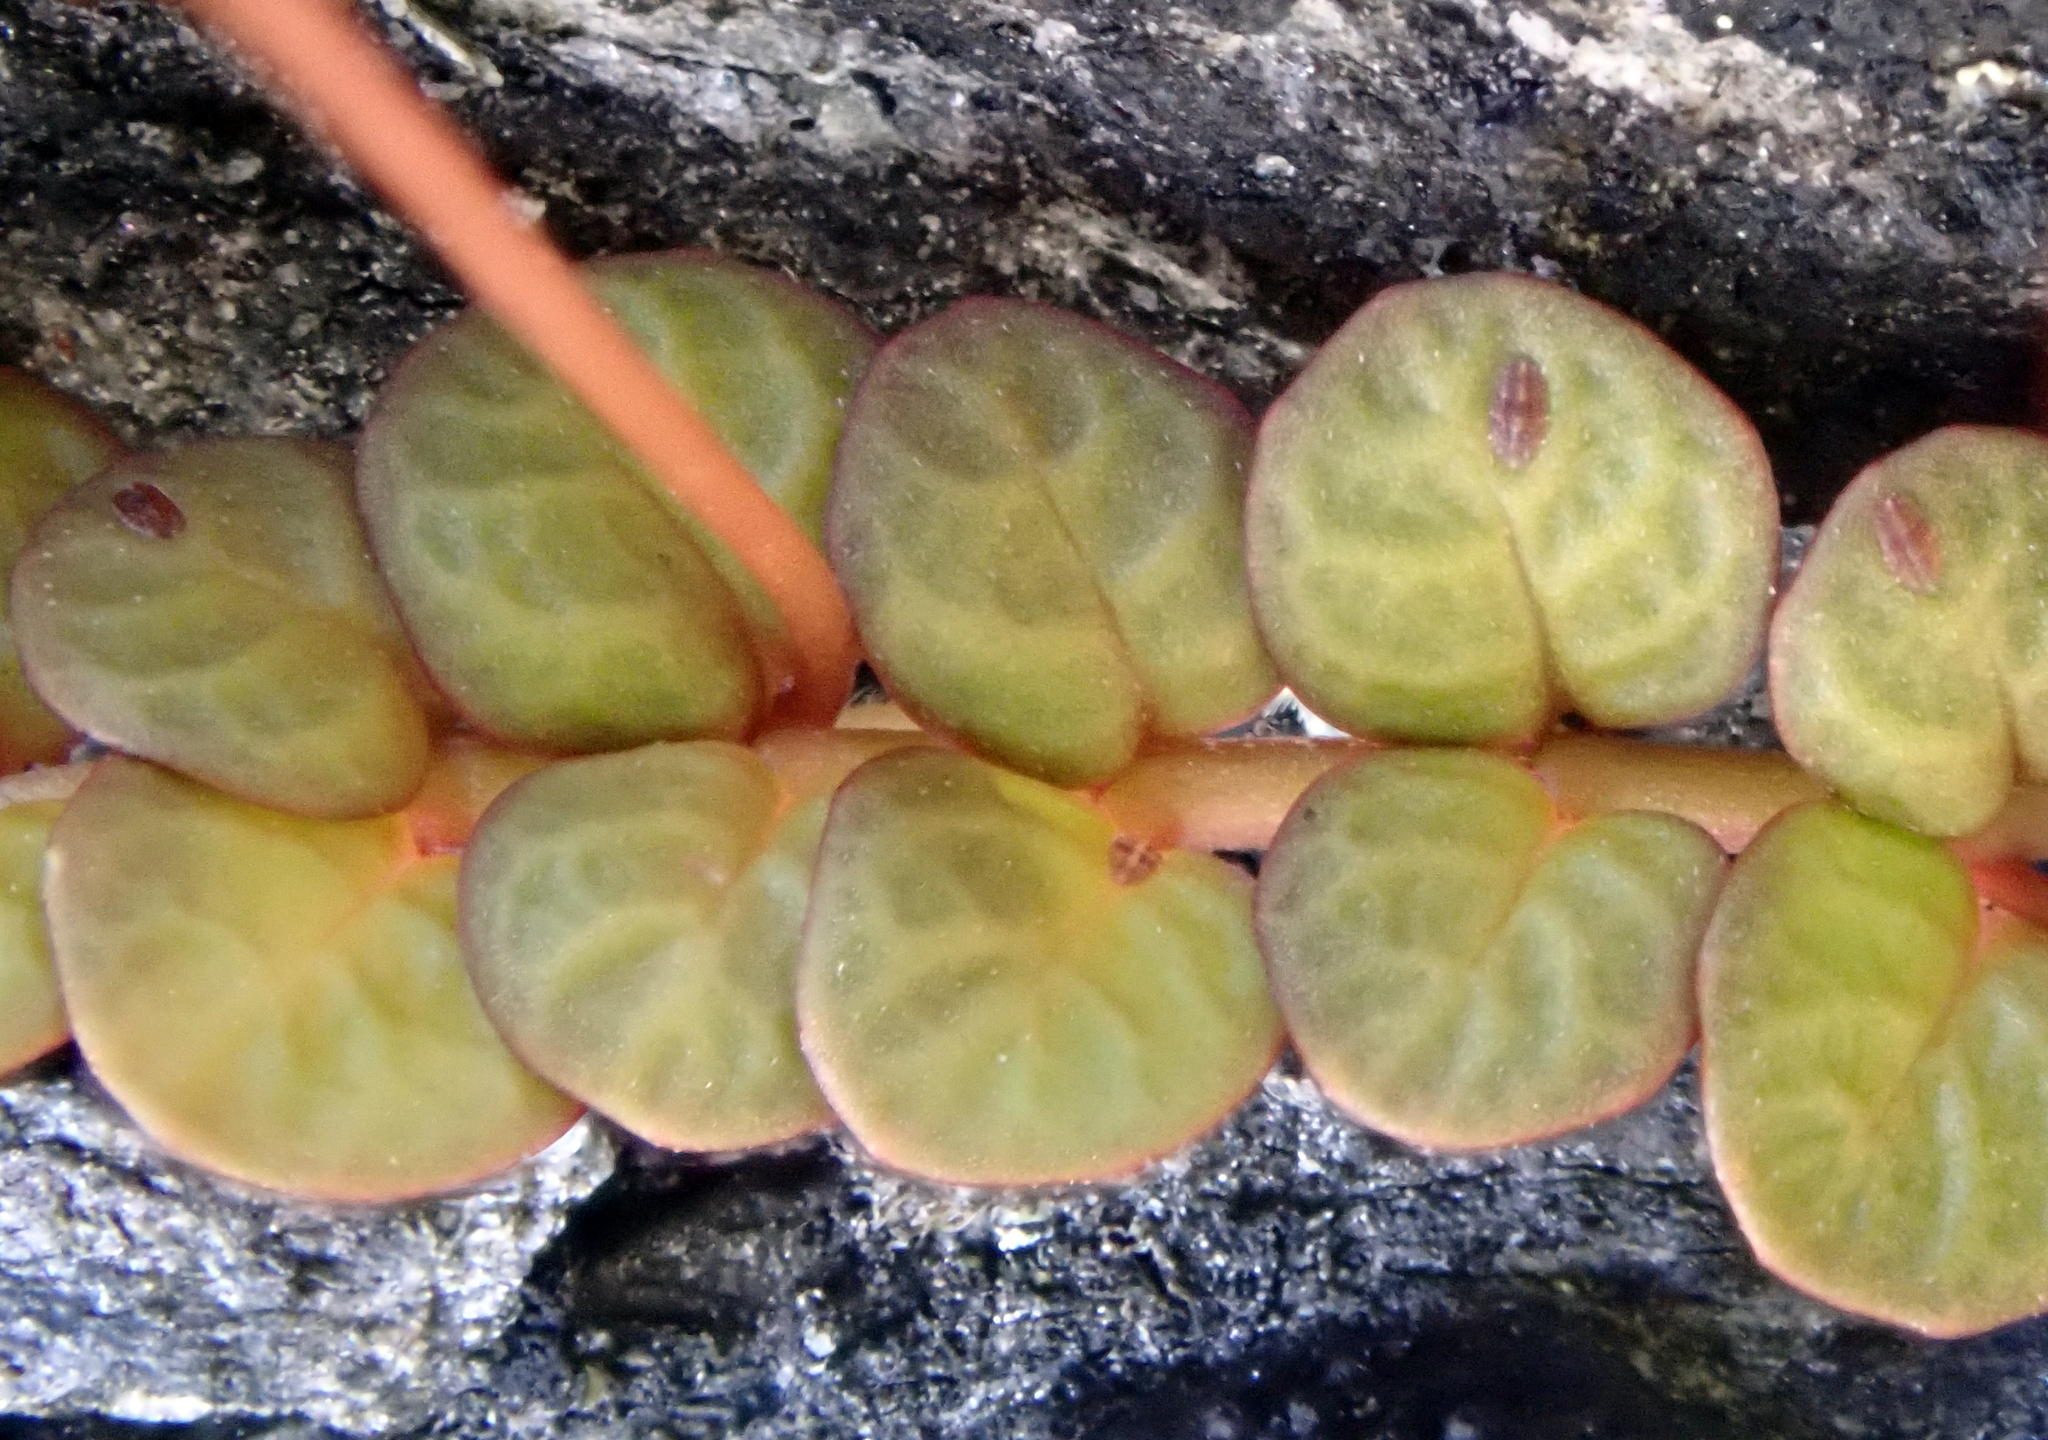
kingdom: Plantae
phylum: Tracheophyta
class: Magnoliopsida
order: Myrtales
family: Onagraceae
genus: Epilobium
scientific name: Epilobium komarovianum
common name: Bronzy willowherb
